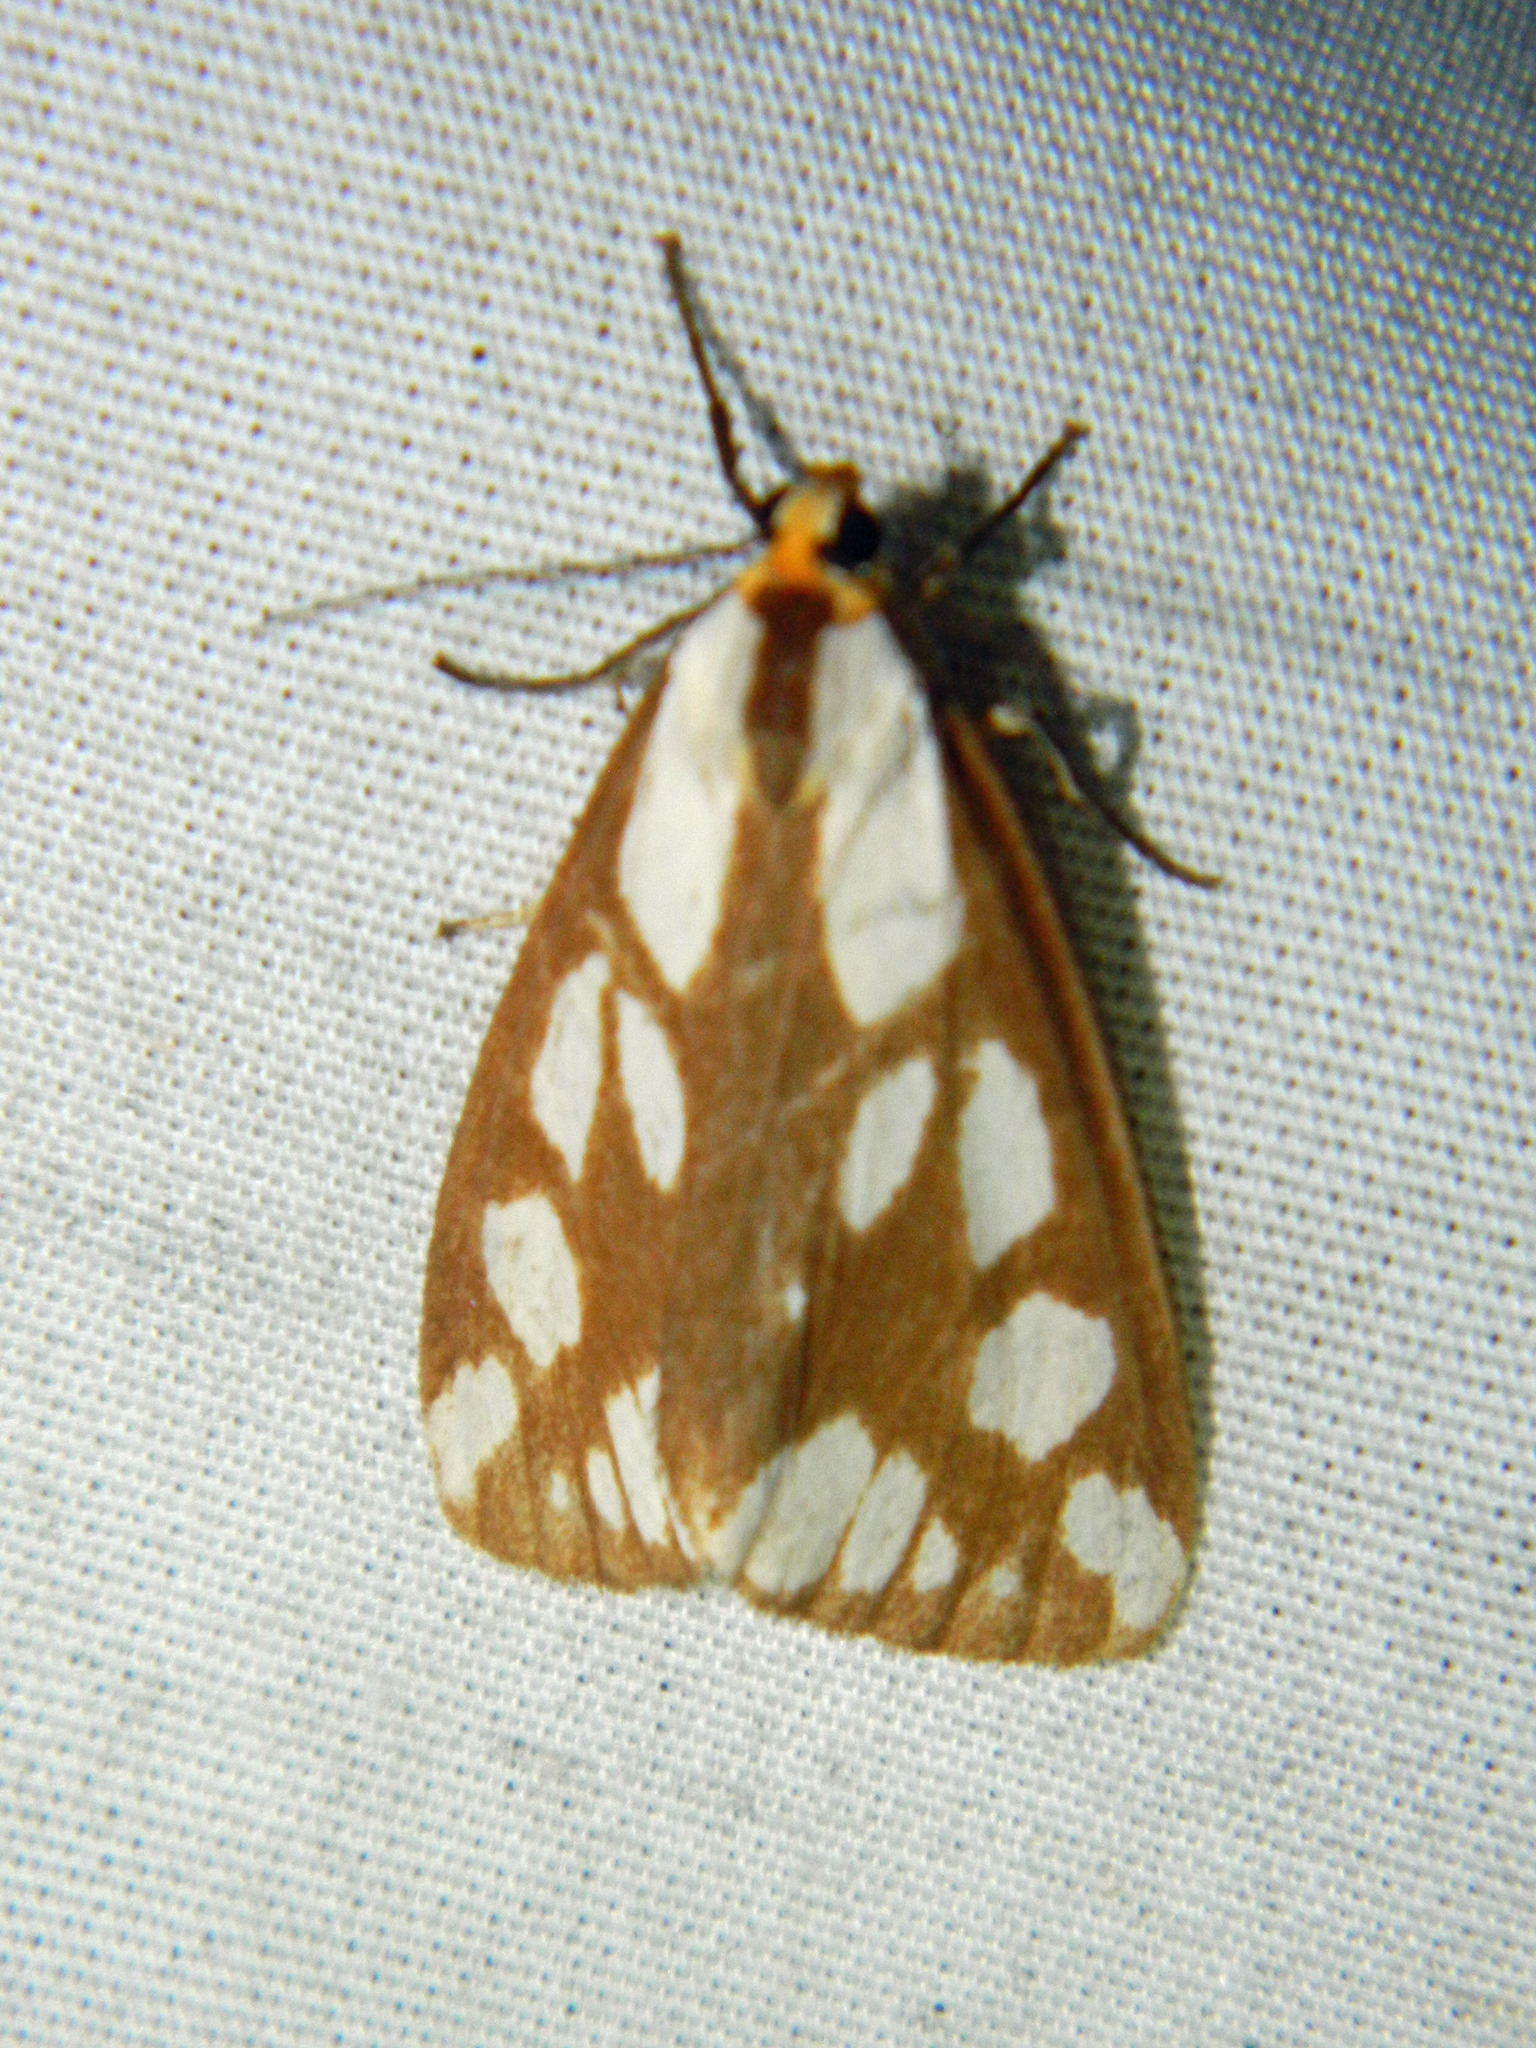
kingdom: Animalia
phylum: Arthropoda
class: Insecta
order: Lepidoptera
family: Erebidae
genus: Haploa
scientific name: Haploa confusa
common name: Confused haploa moth
